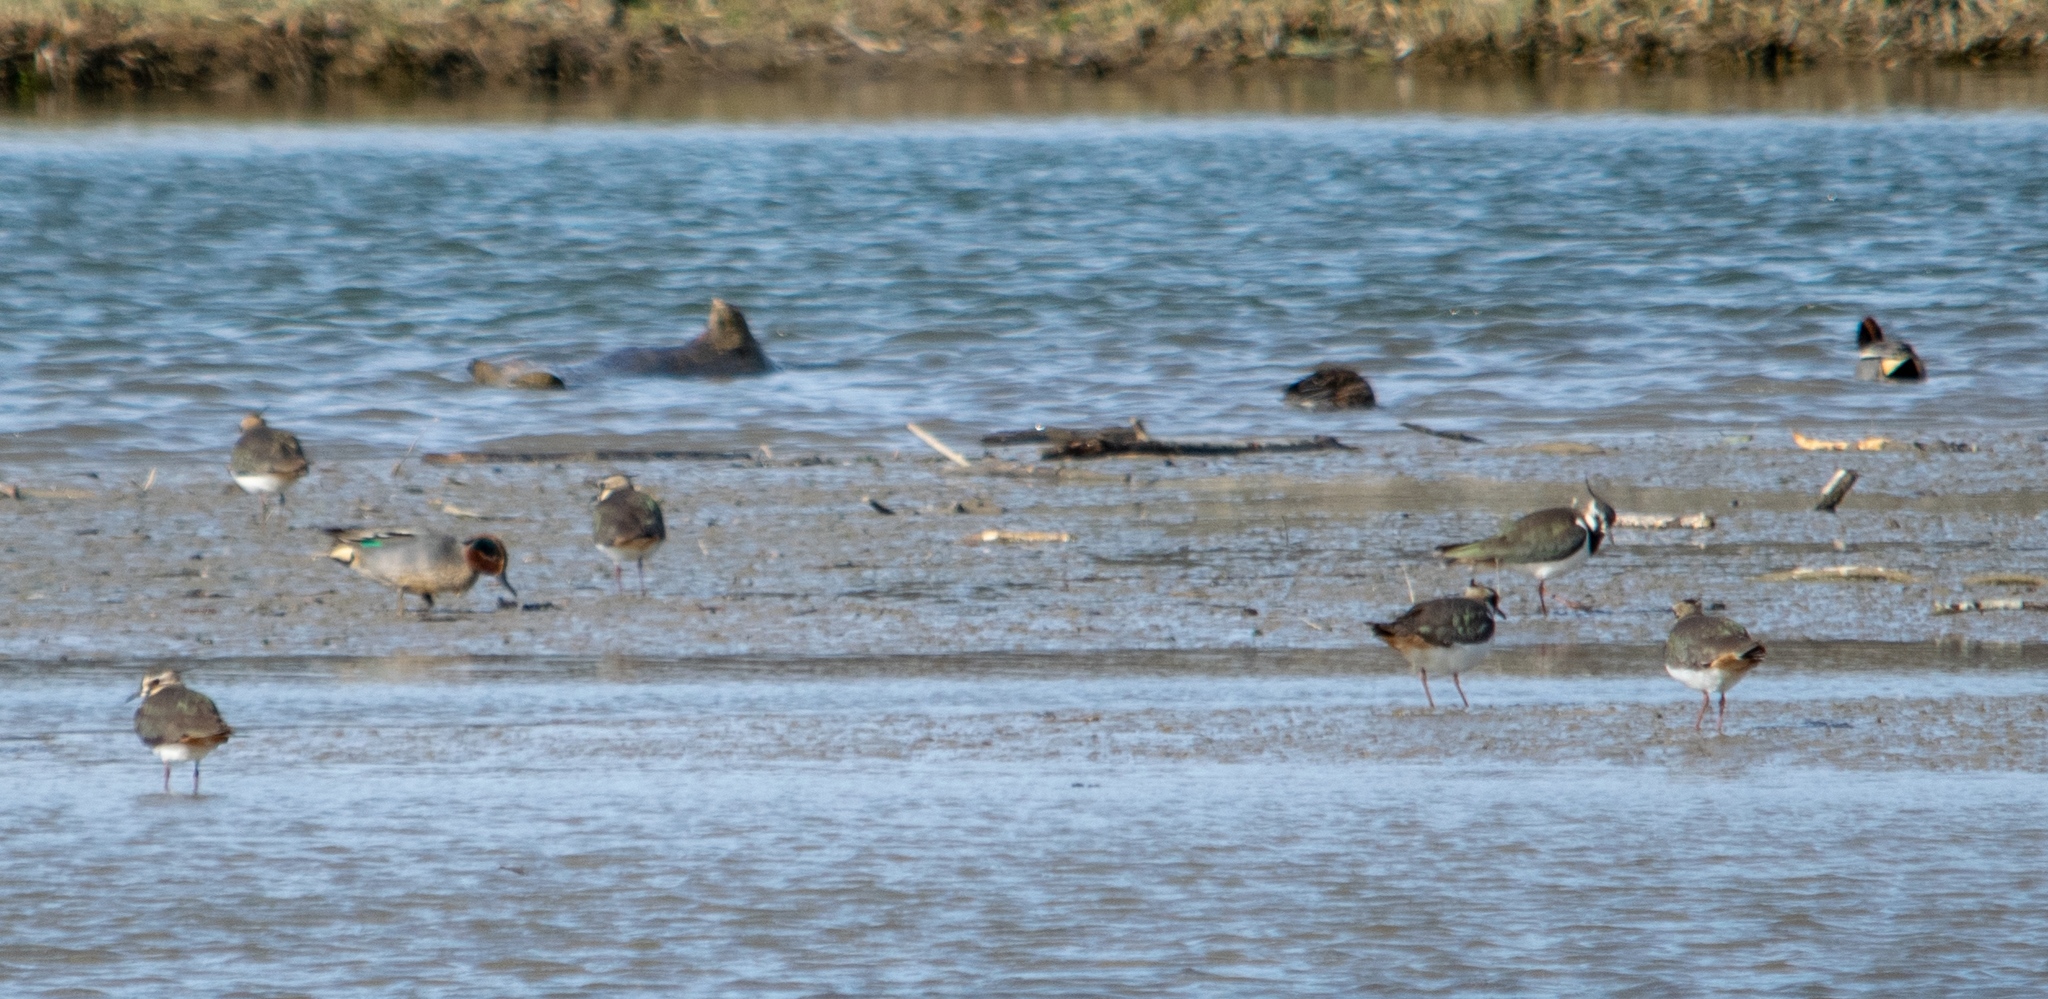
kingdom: Animalia
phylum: Chordata
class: Aves
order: Anseriformes
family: Anatidae
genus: Anas
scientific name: Anas crecca
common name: Eurasian teal
